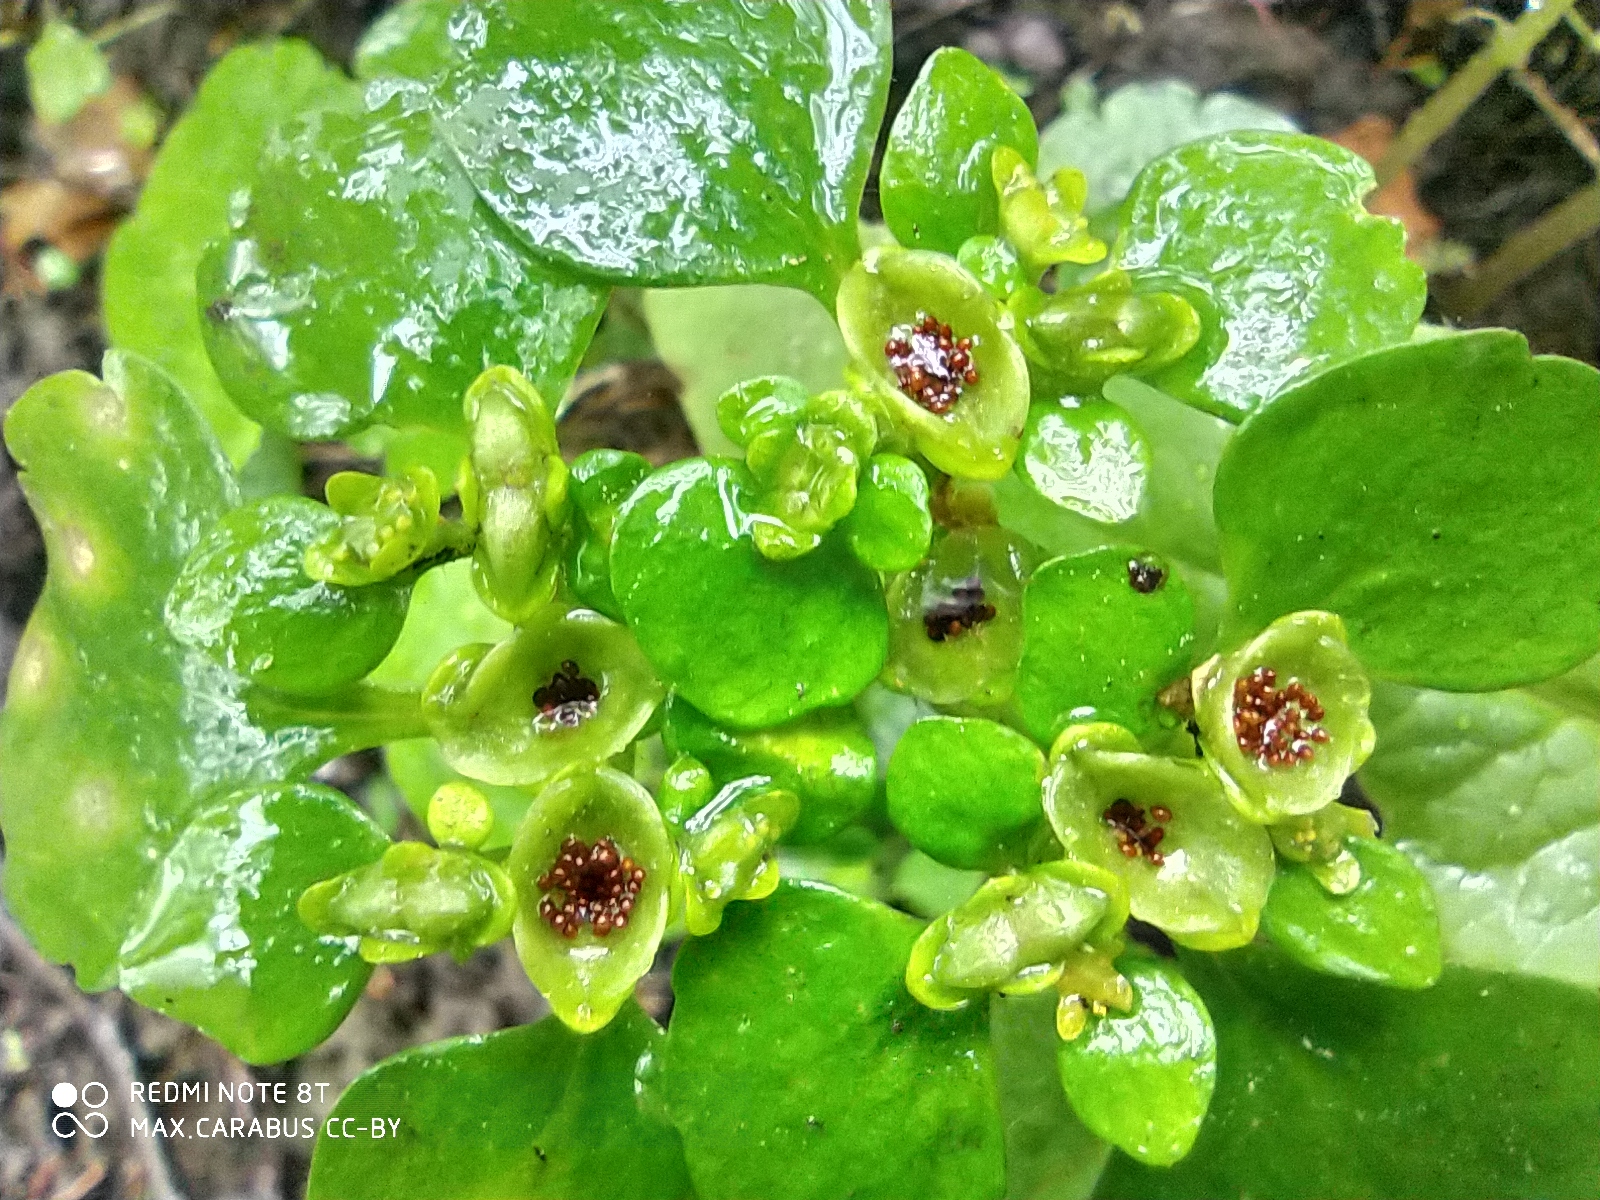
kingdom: Plantae
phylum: Tracheophyta
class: Magnoliopsida
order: Saxifragales
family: Saxifragaceae
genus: Chrysosplenium
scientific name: Chrysosplenium alternifolium
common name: Alternate-leaved golden-saxifrage
